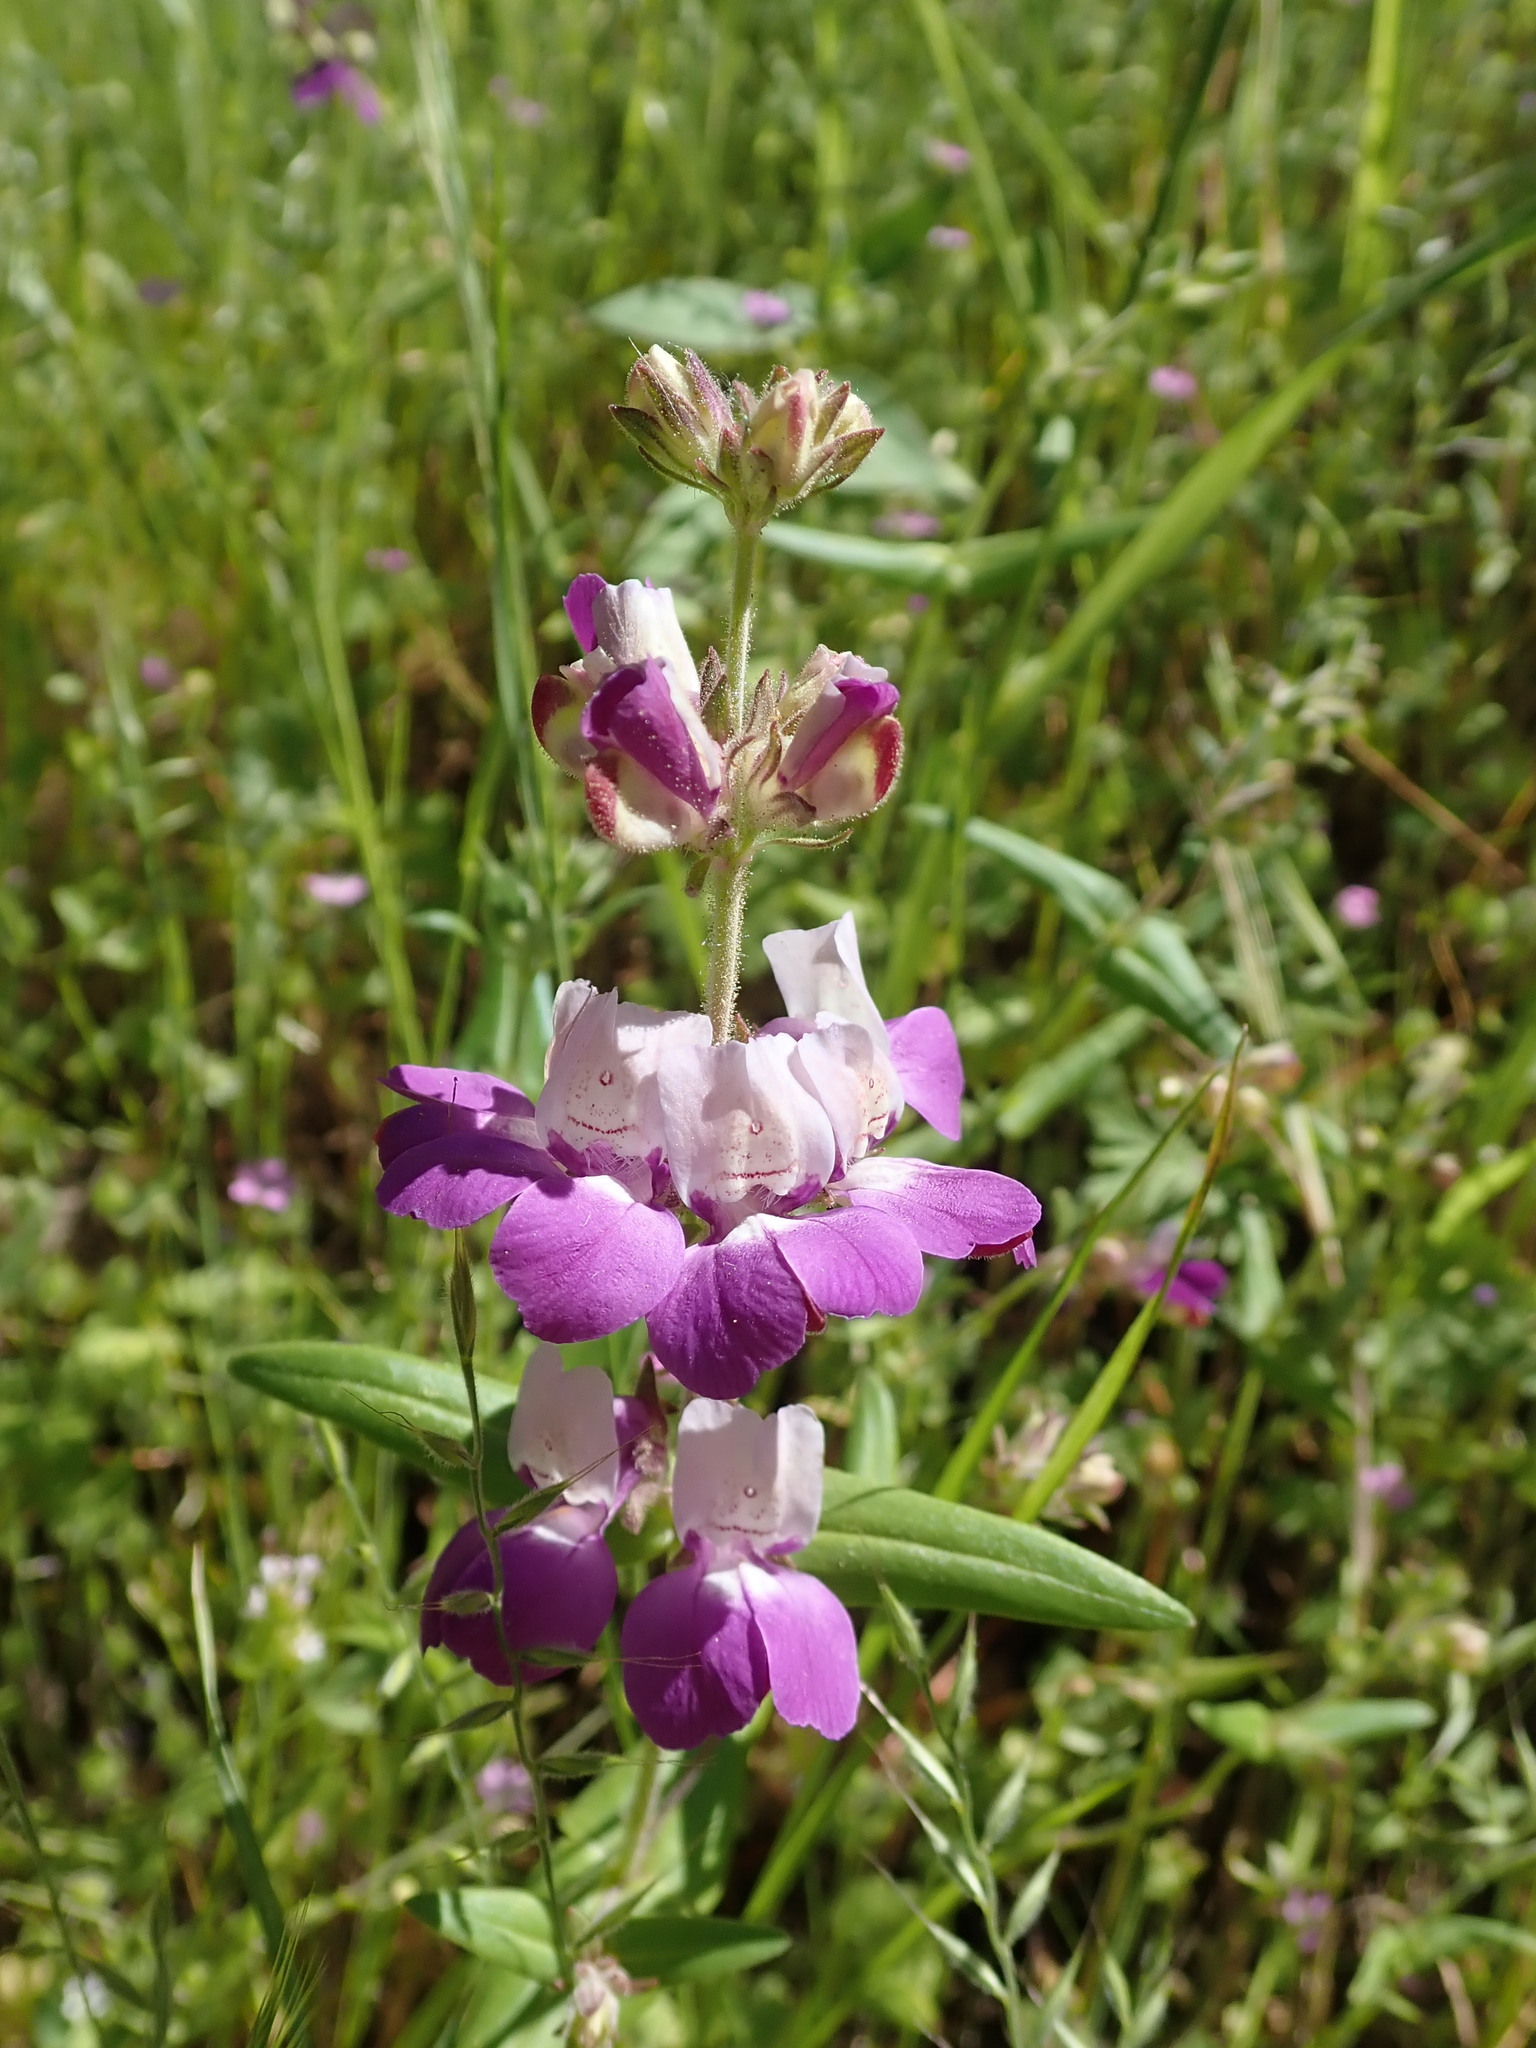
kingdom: Plantae
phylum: Tracheophyta
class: Magnoliopsida
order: Lamiales
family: Plantaginaceae
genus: Collinsia
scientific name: Collinsia heterophylla
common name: Chinese-houses
